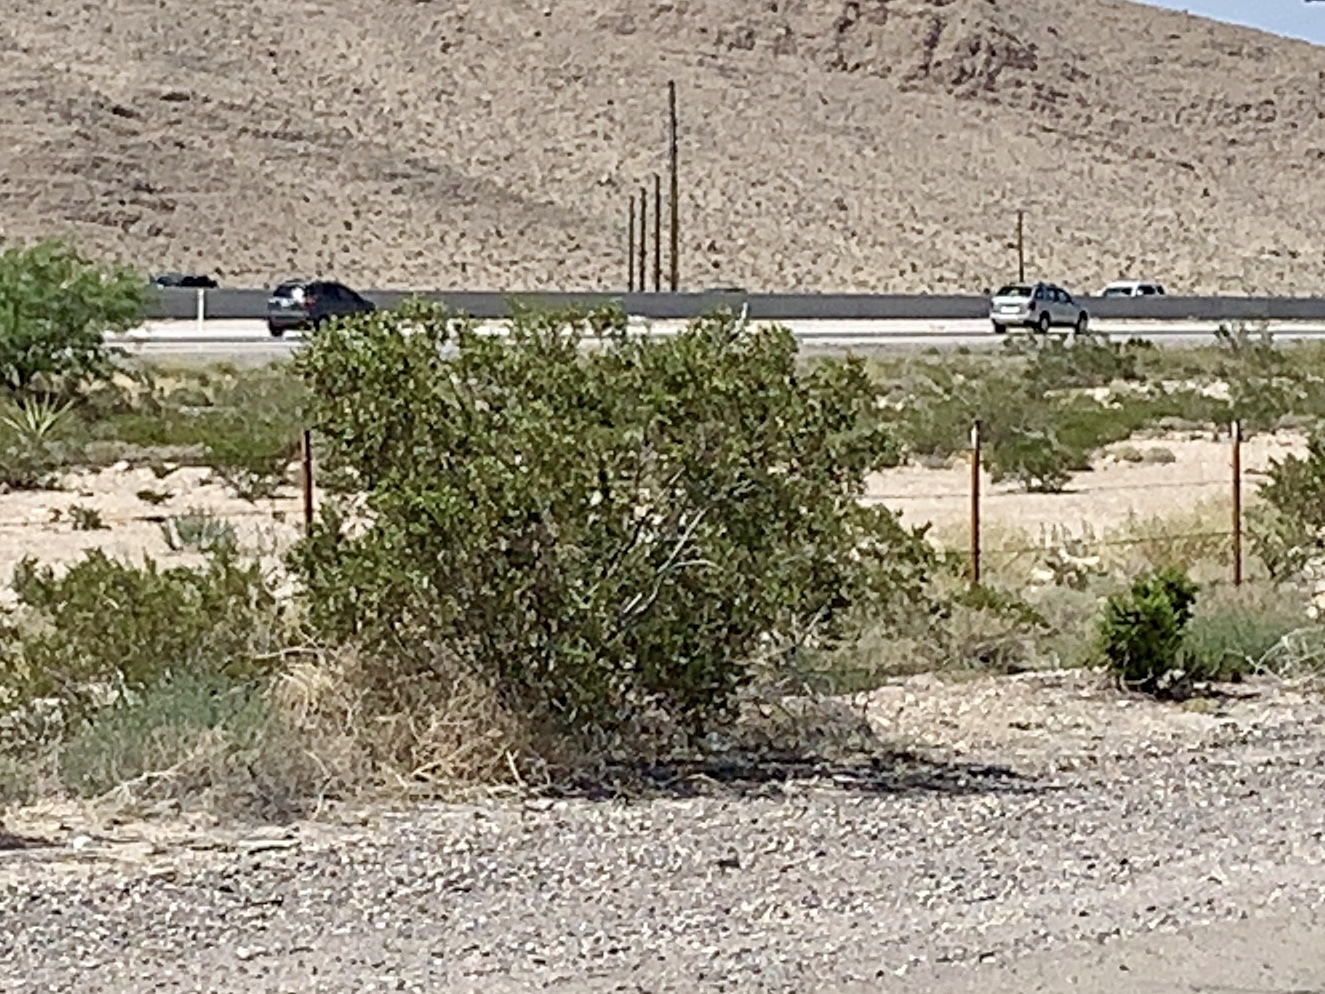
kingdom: Plantae
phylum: Tracheophyta
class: Magnoliopsida
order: Zygophyllales
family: Zygophyllaceae
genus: Larrea
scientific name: Larrea tridentata
